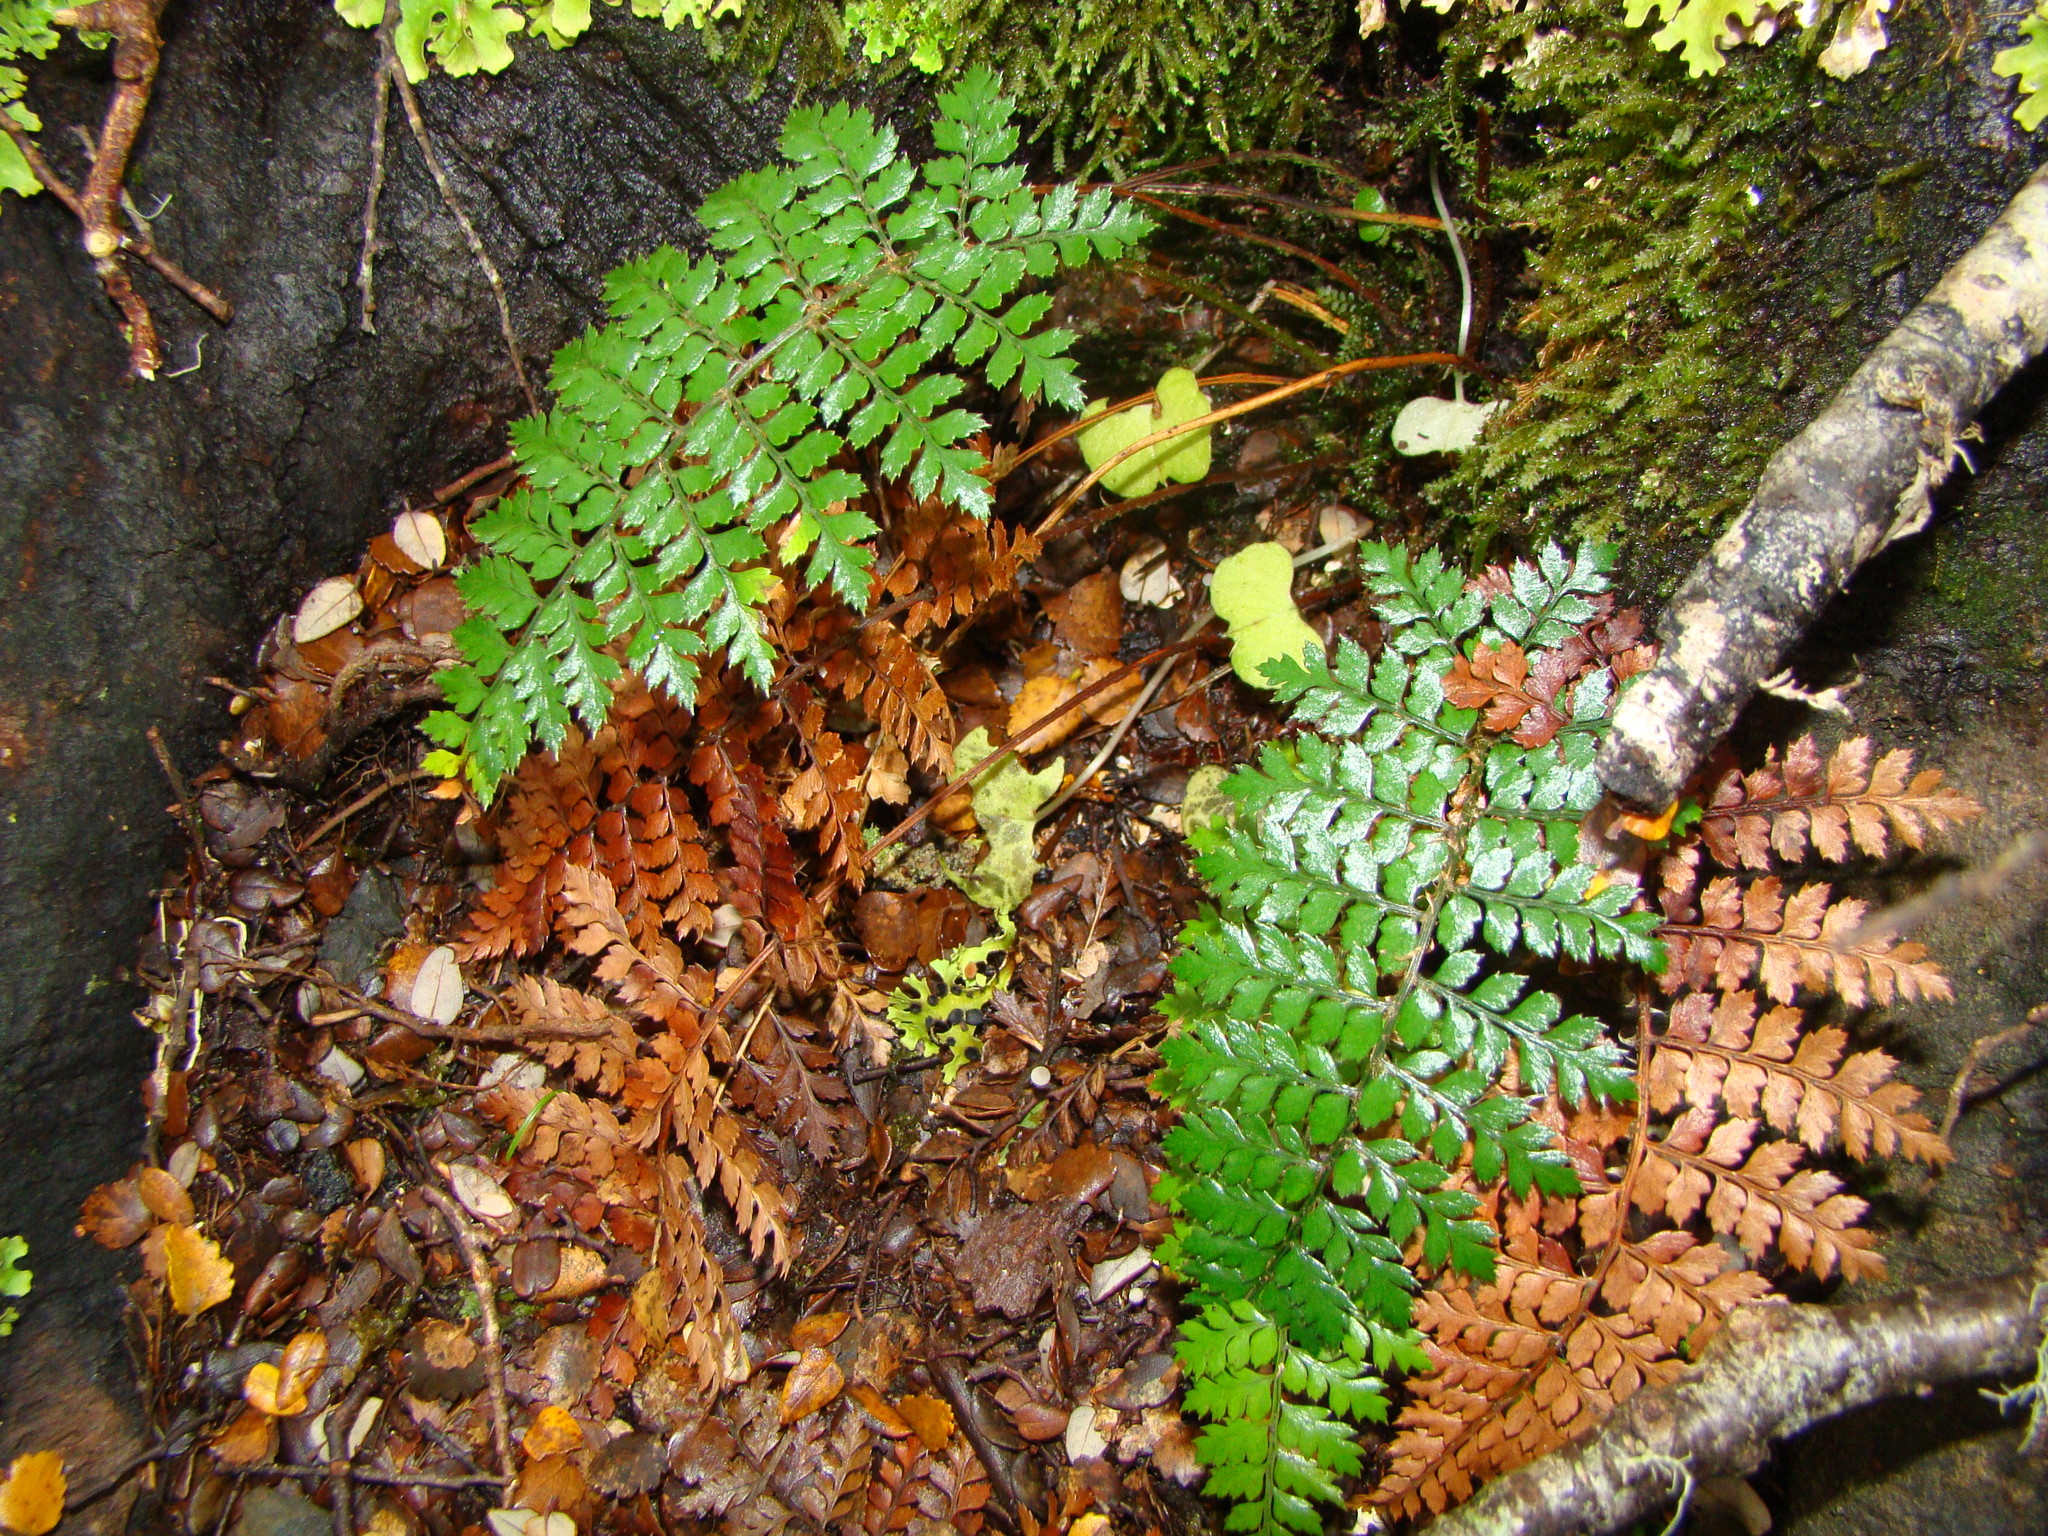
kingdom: Plantae
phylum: Tracheophyta
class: Polypodiopsida
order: Polypodiales
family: Dryopteridaceae
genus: Polystichum
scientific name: Polystichum vestitum
